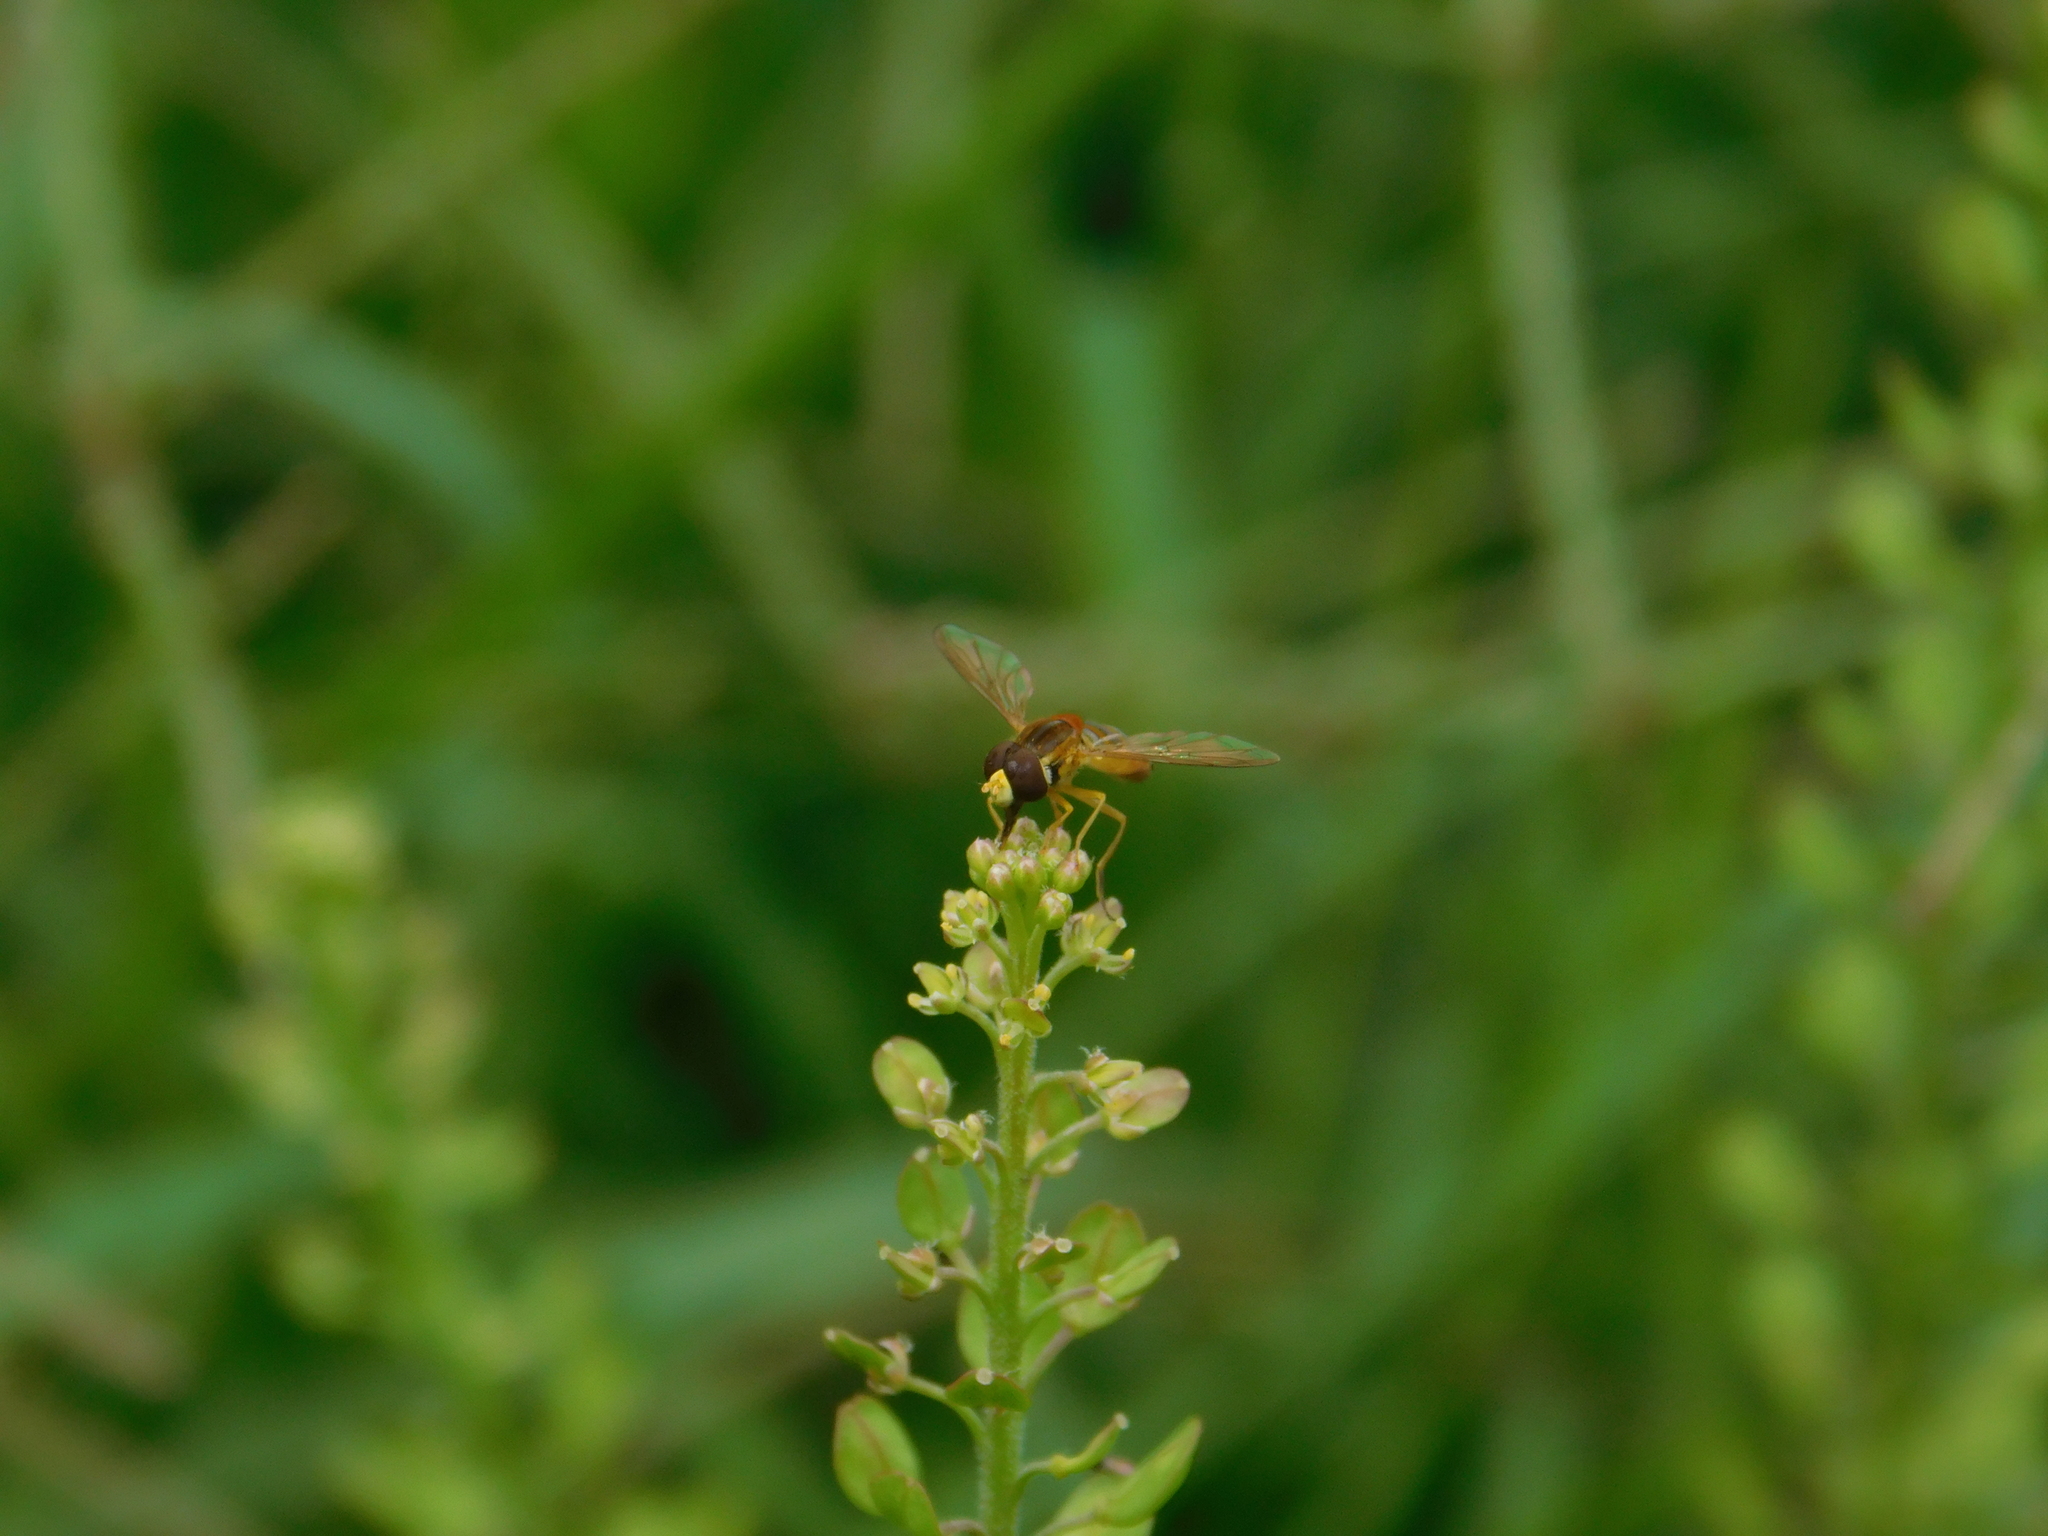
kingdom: Animalia
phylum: Arthropoda
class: Insecta
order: Diptera
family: Syrphidae
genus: Toxomerus
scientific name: Toxomerus
